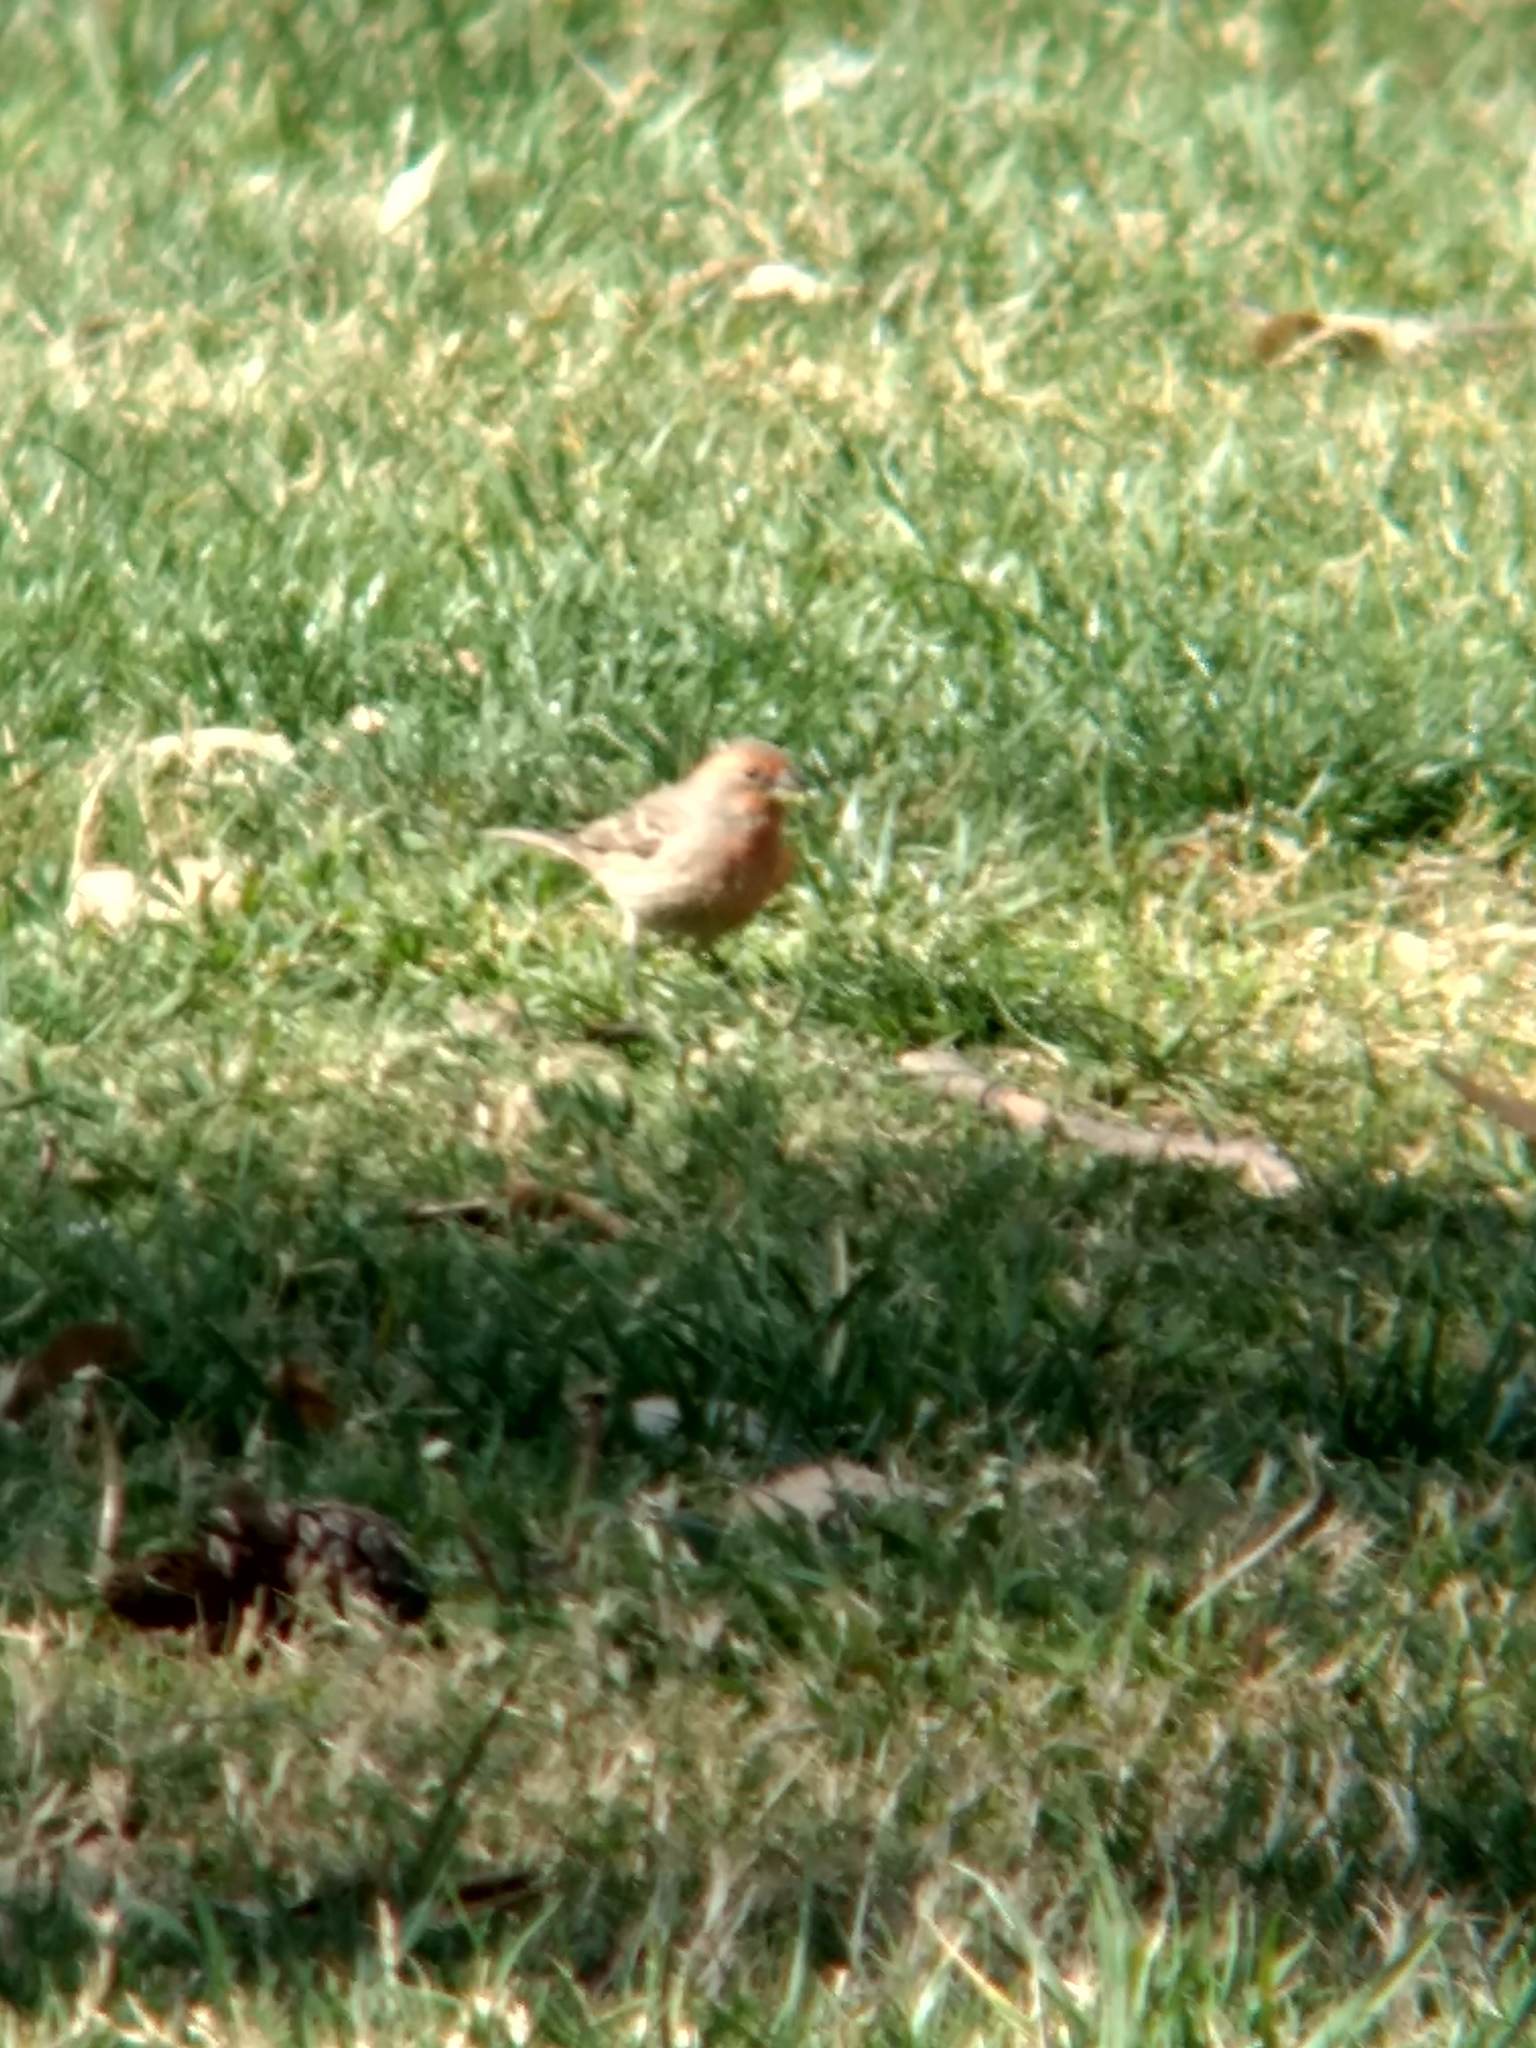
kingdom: Animalia
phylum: Chordata
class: Aves
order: Passeriformes
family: Fringillidae
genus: Haemorhous
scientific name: Haemorhous mexicanus
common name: House finch
